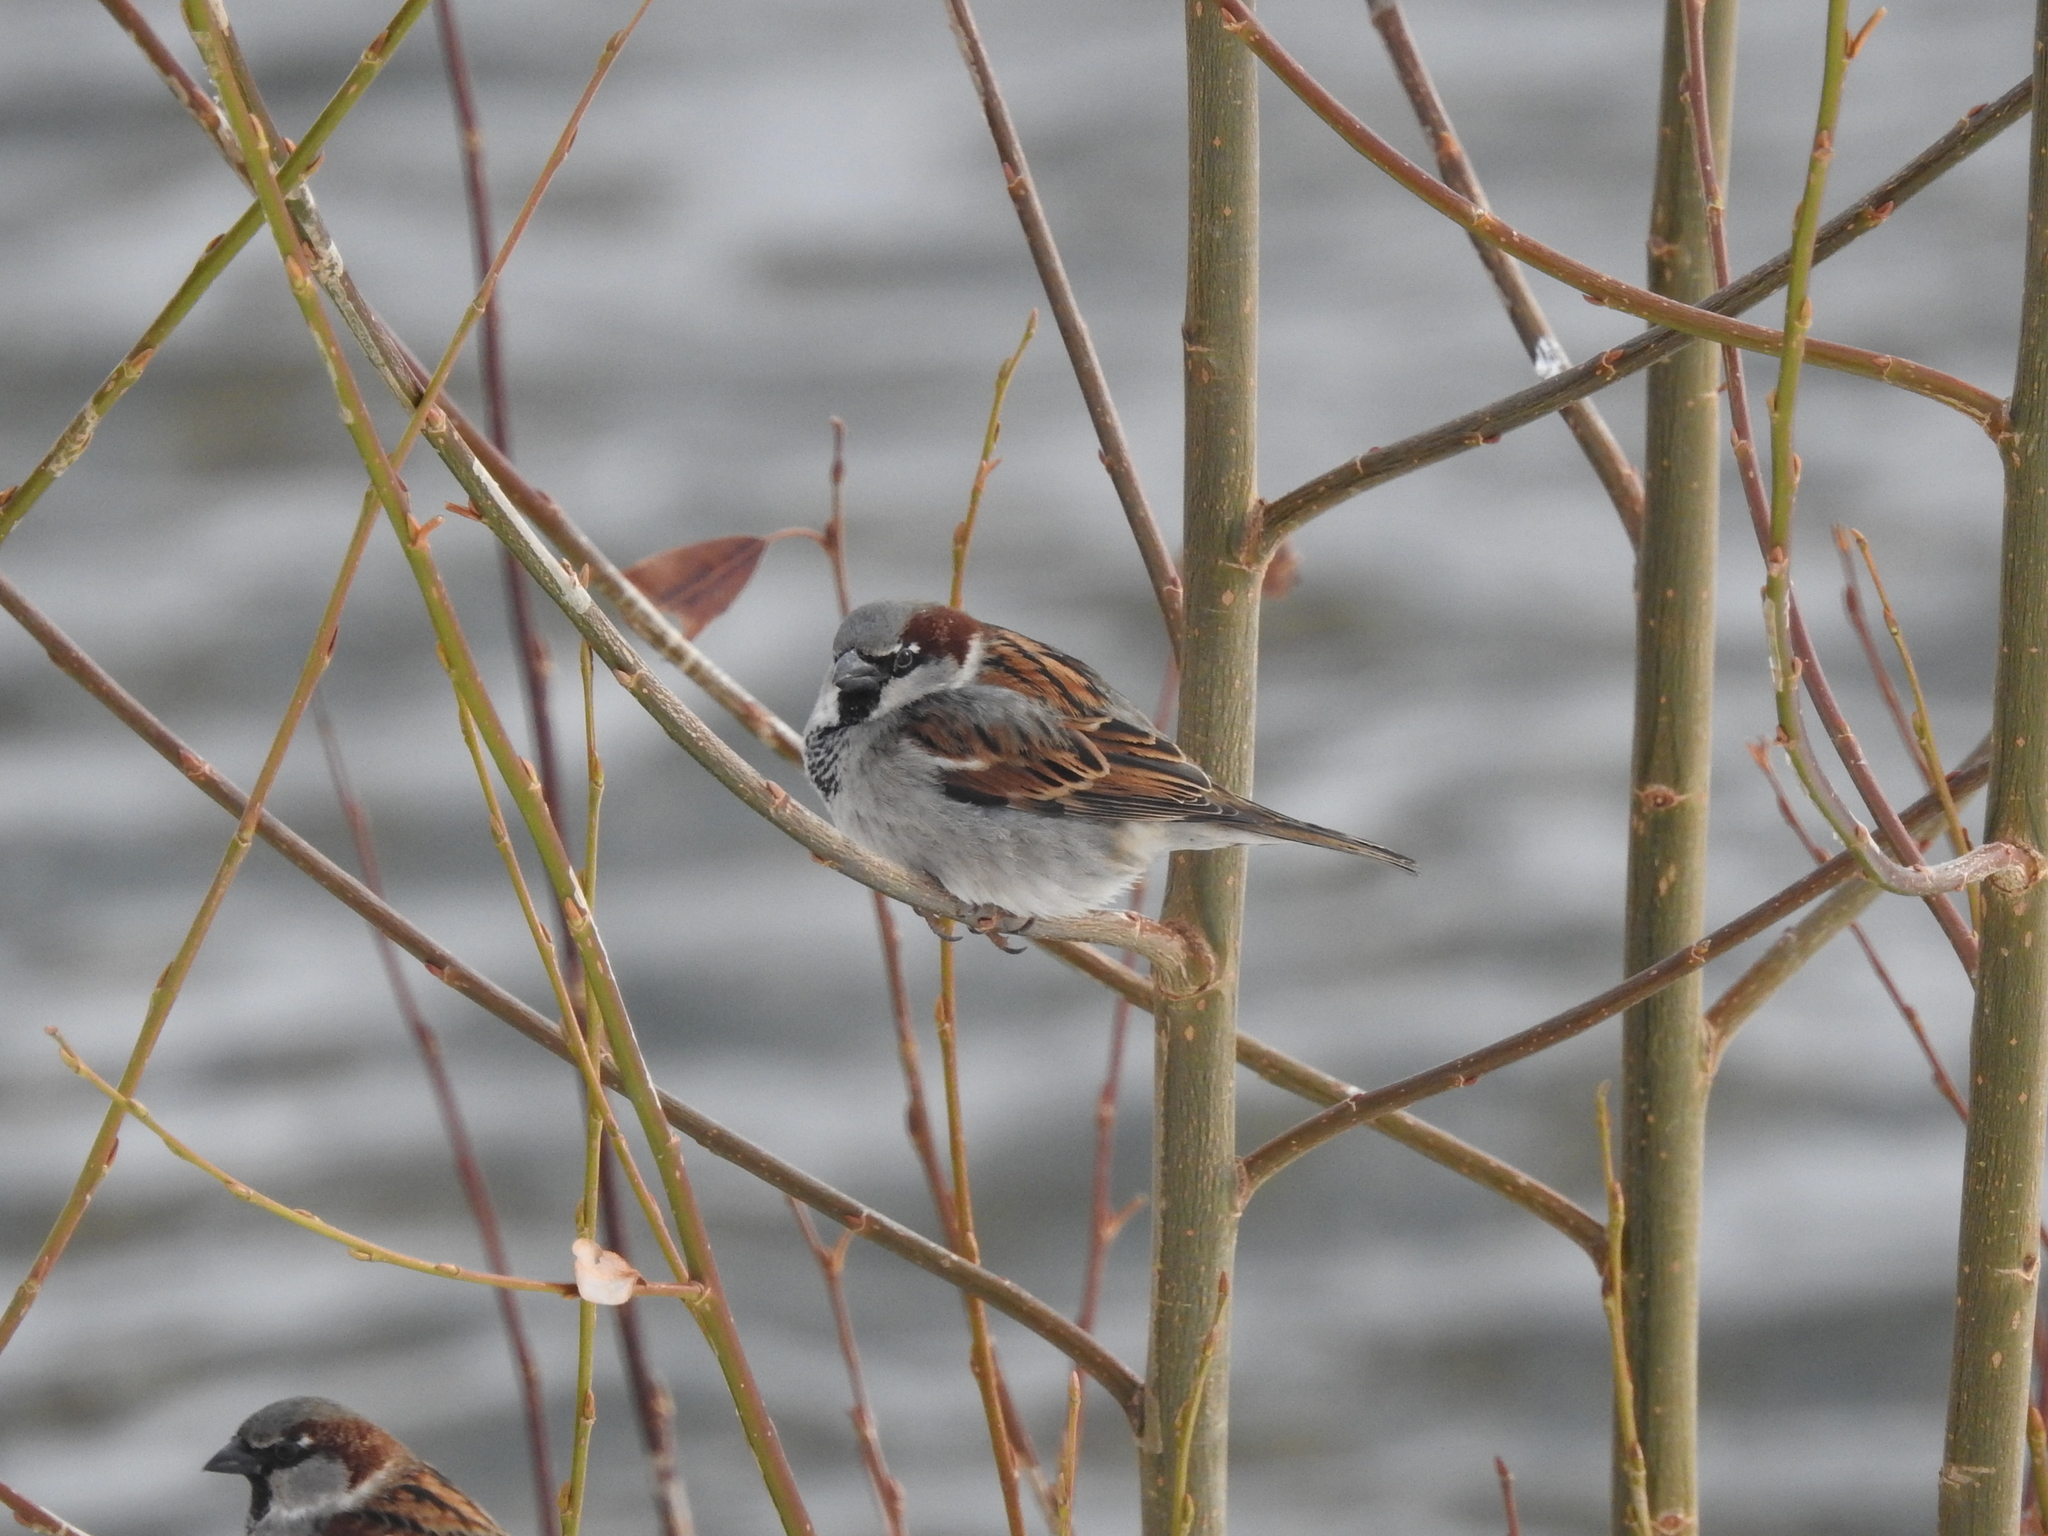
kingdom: Animalia
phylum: Chordata
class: Aves
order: Passeriformes
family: Passeridae
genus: Passer
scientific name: Passer domesticus
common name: House sparrow
